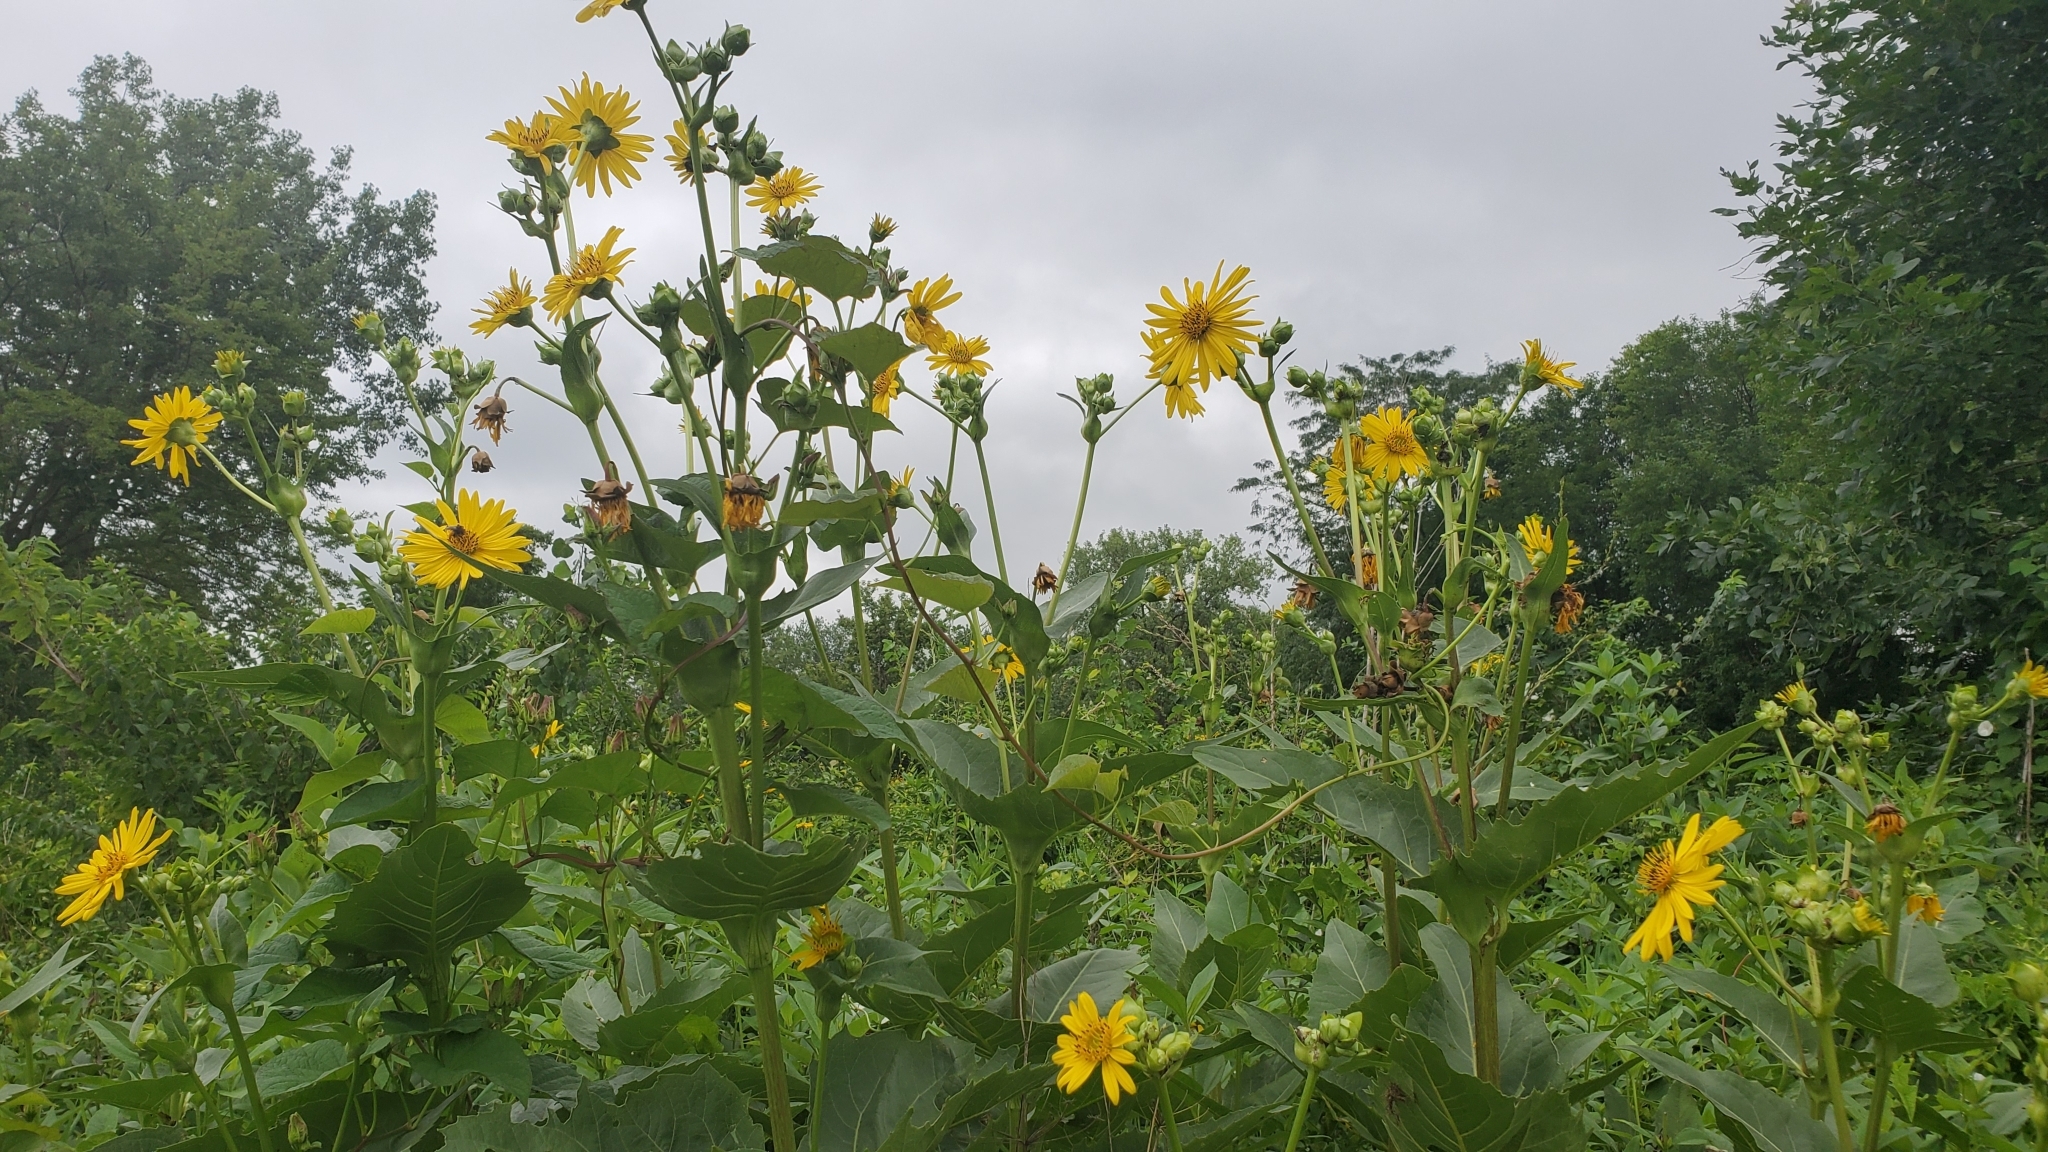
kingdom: Plantae
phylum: Tracheophyta
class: Magnoliopsida
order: Asterales
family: Asteraceae
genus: Silphium
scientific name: Silphium perfoliatum
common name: Cup-plant
